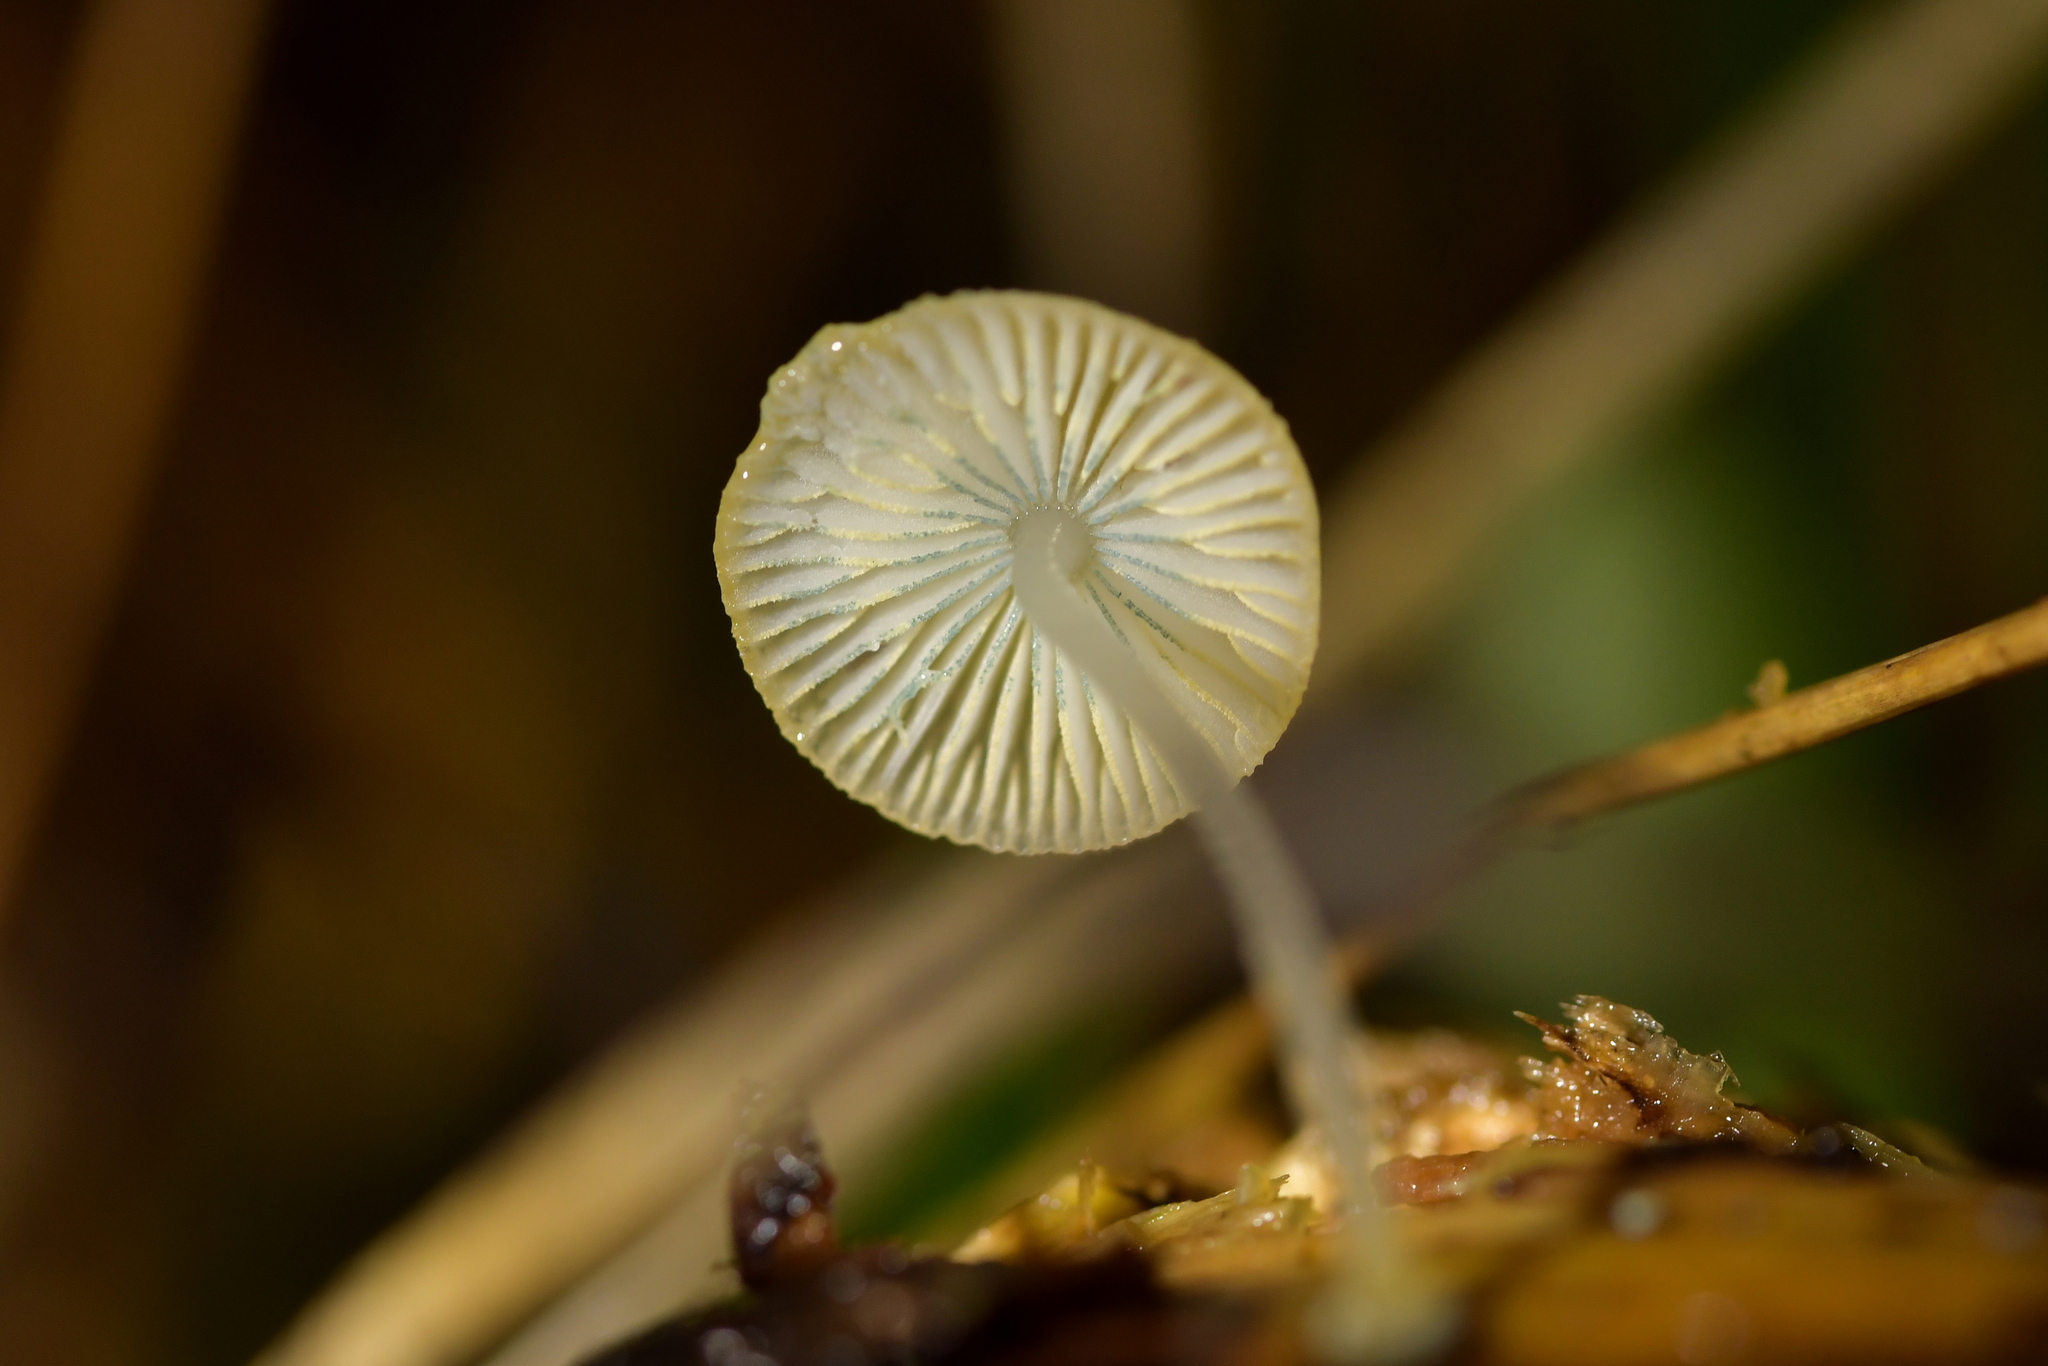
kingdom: Fungi
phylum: Basidiomycota
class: Agaricomycetes
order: Agaricales
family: Mycenaceae
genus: Mycena
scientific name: Mycena interrupta
